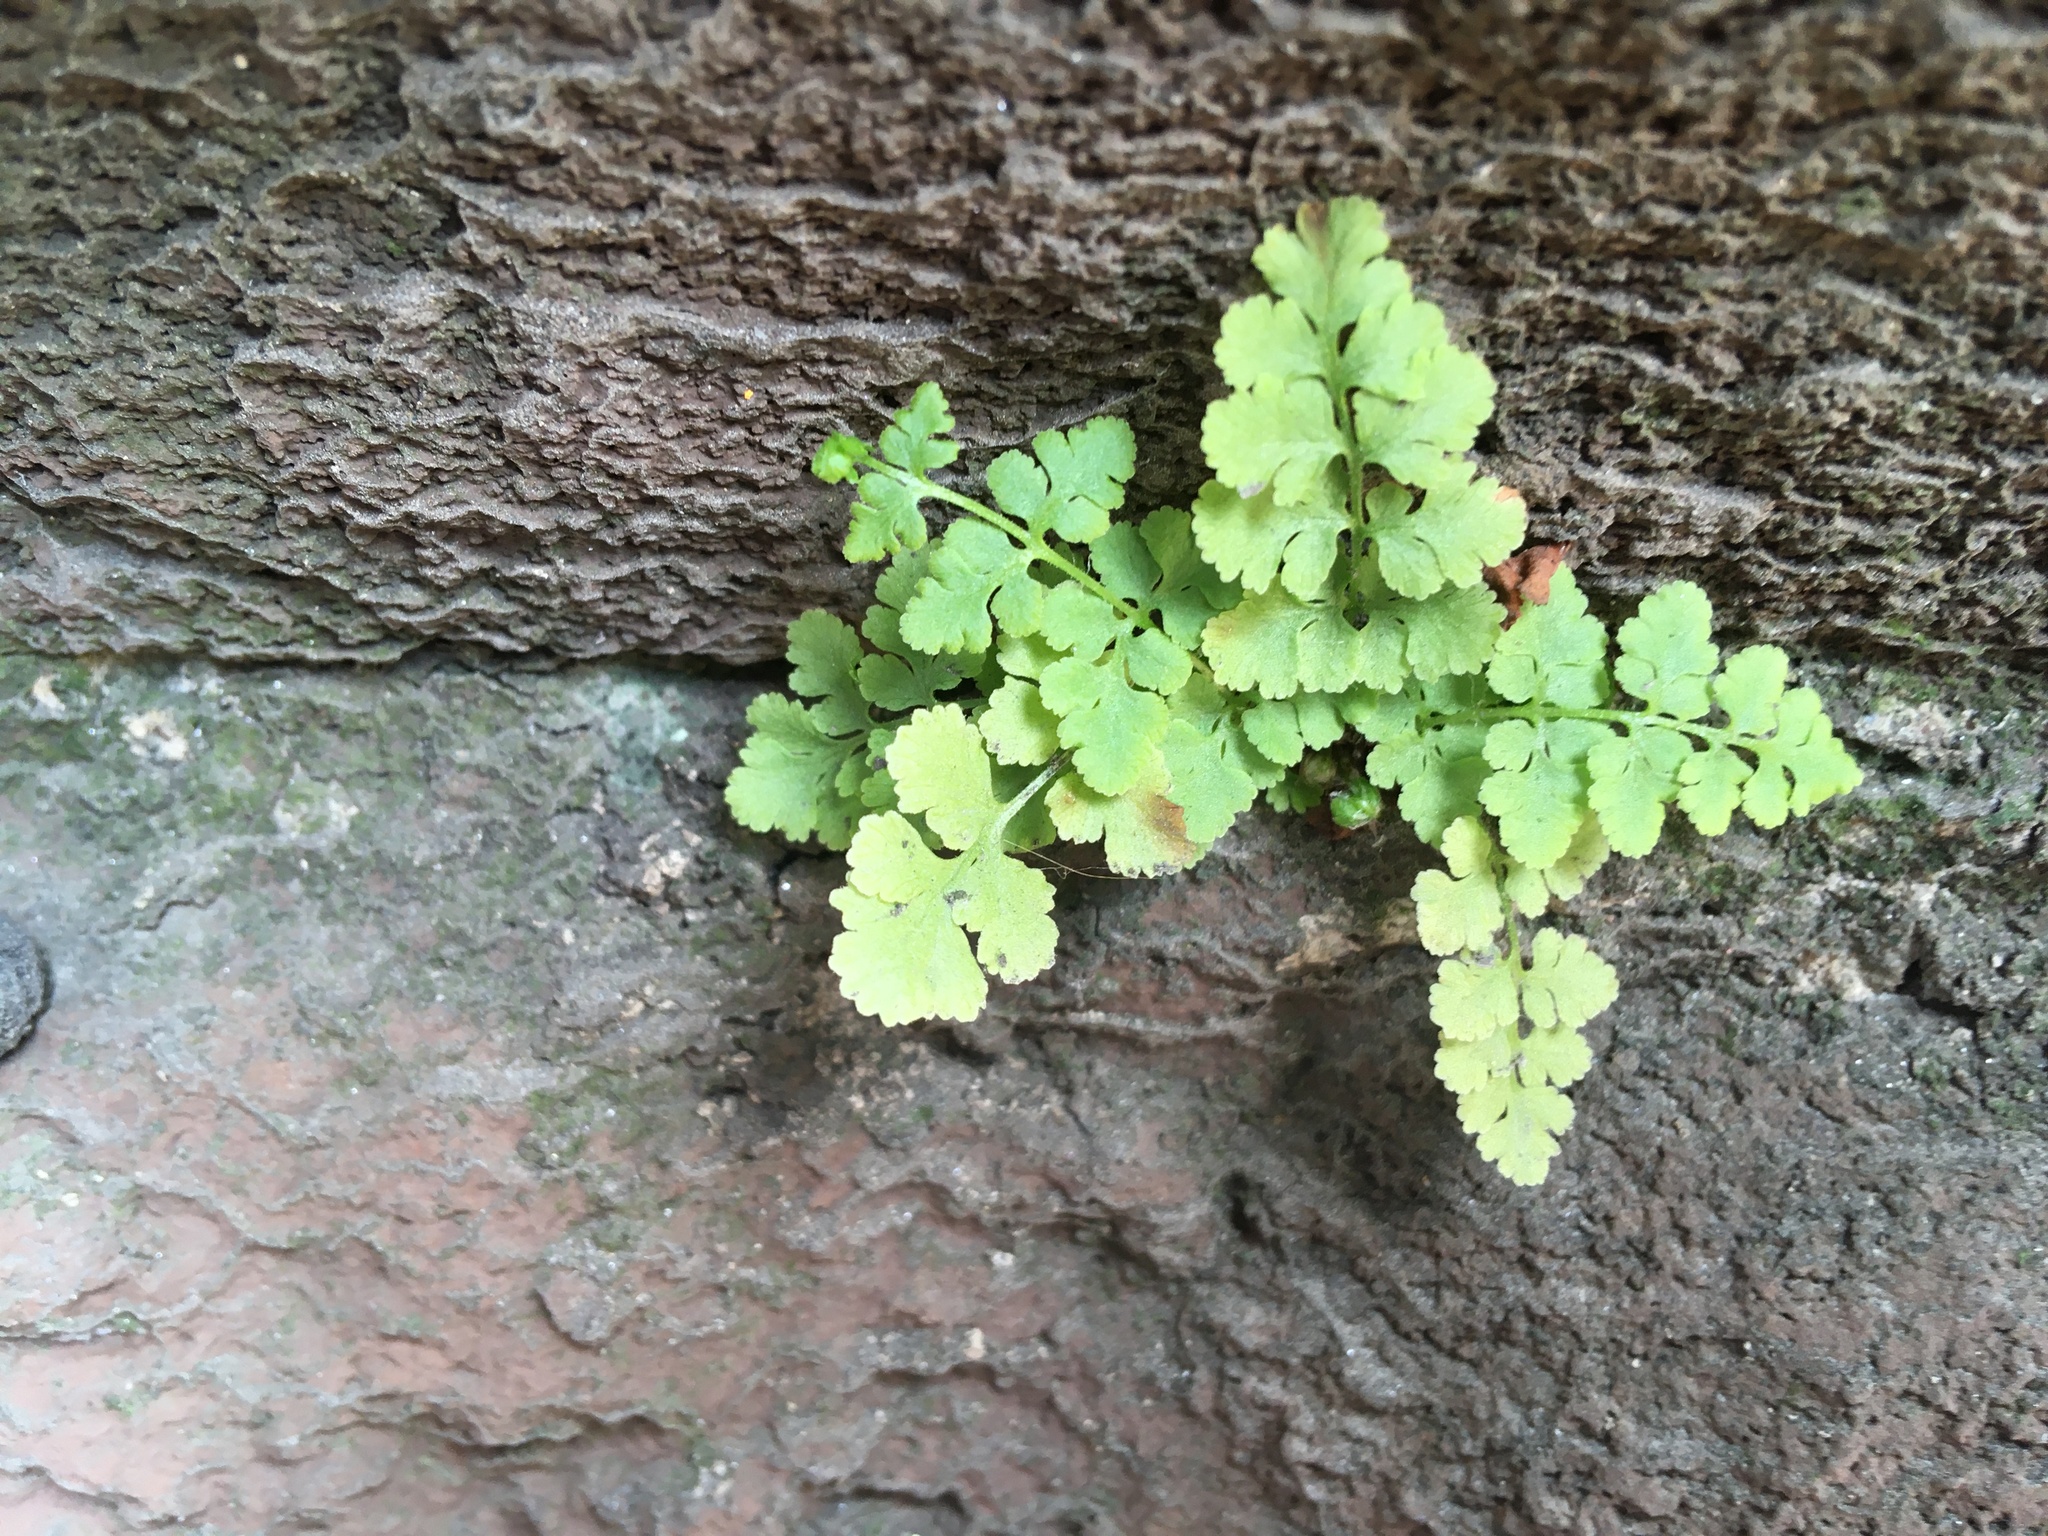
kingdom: Plantae
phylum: Tracheophyta
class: Polypodiopsida
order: Polypodiales
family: Woodsiaceae
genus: Physematium
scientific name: Physematium obtusum
